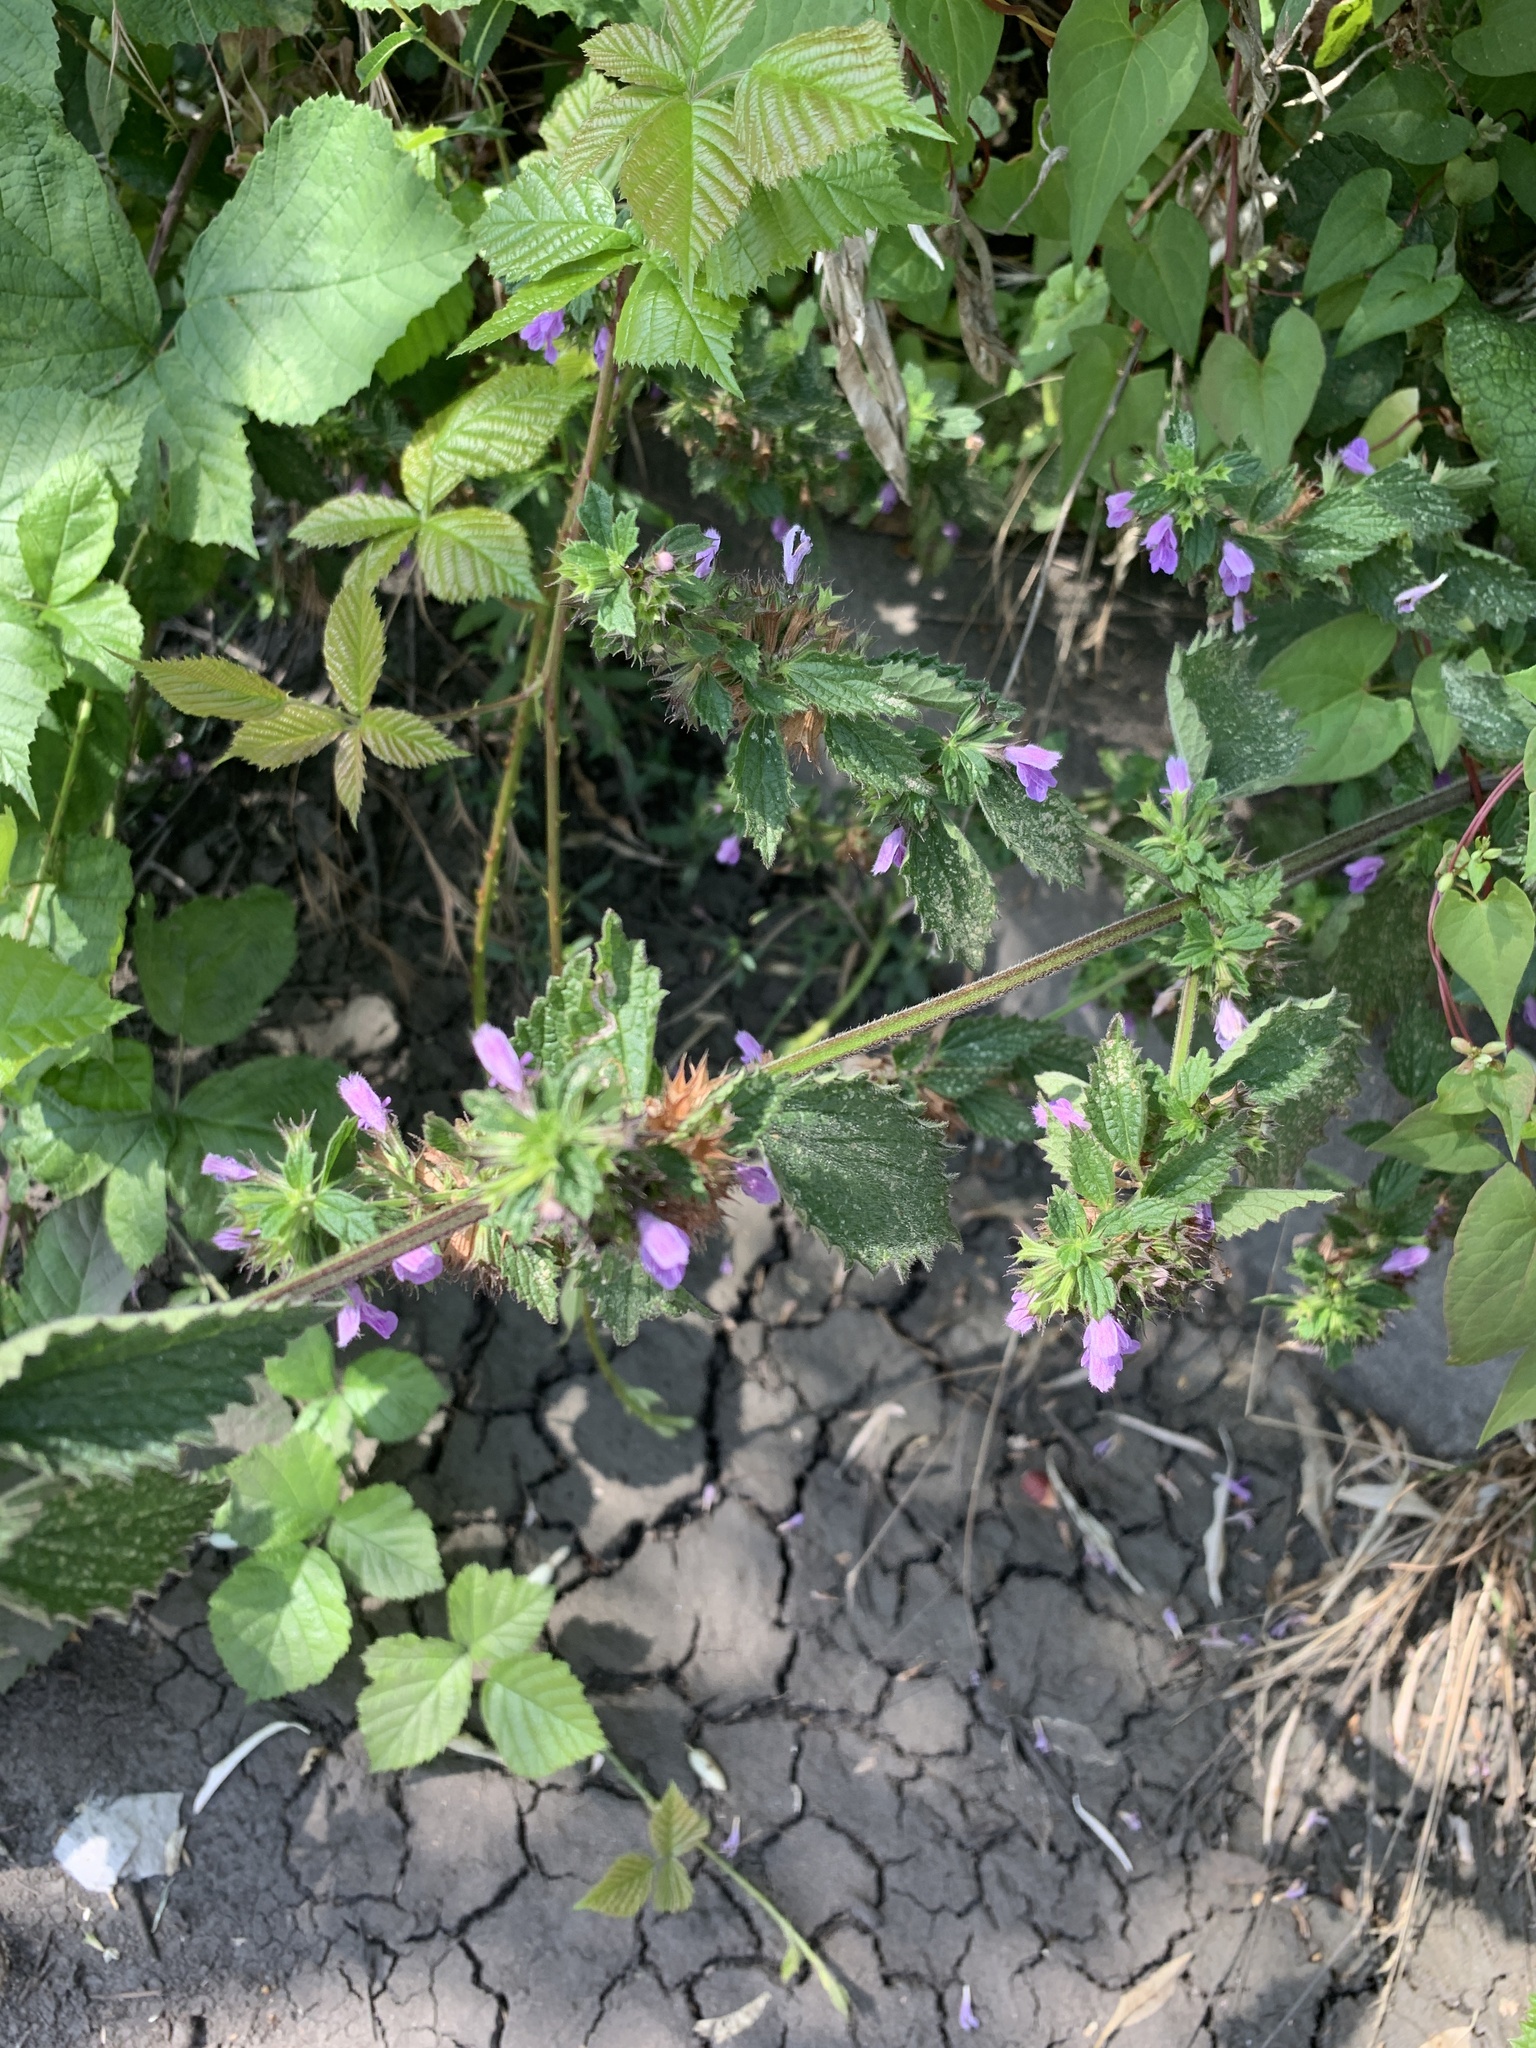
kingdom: Plantae
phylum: Tracheophyta
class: Magnoliopsida
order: Lamiales
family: Lamiaceae
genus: Ballota
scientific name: Ballota nigra
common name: Black horehound
